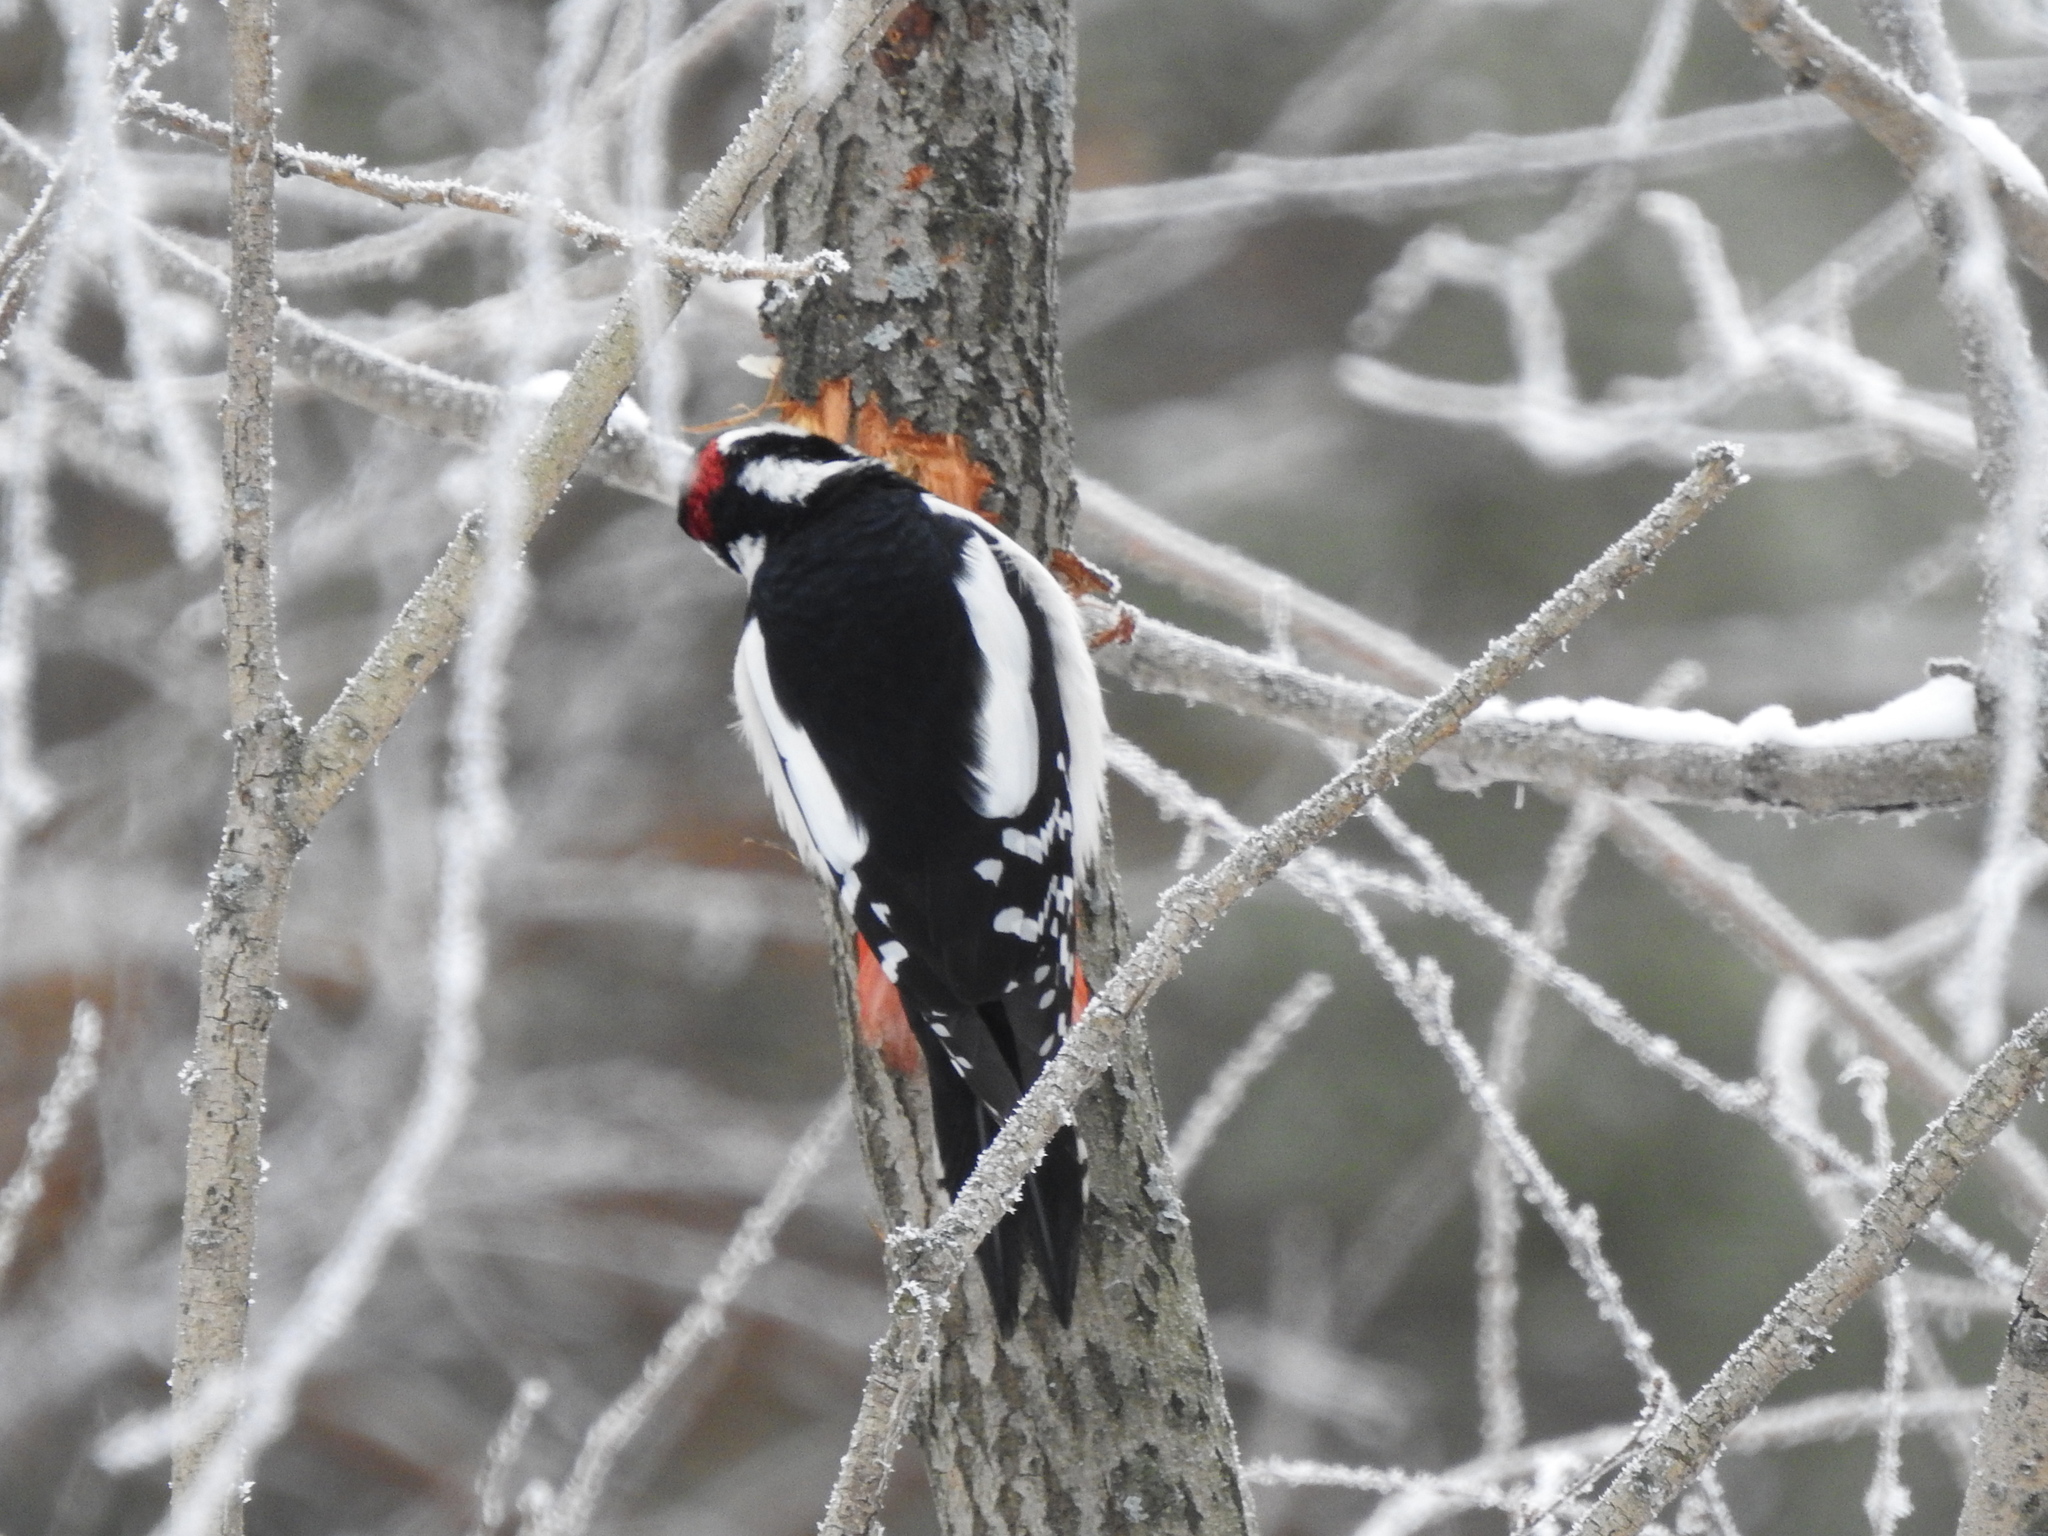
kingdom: Animalia
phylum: Chordata
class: Aves
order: Piciformes
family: Picidae
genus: Dendrocopos
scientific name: Dendrocopos major
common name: Great spotted woodpecker
